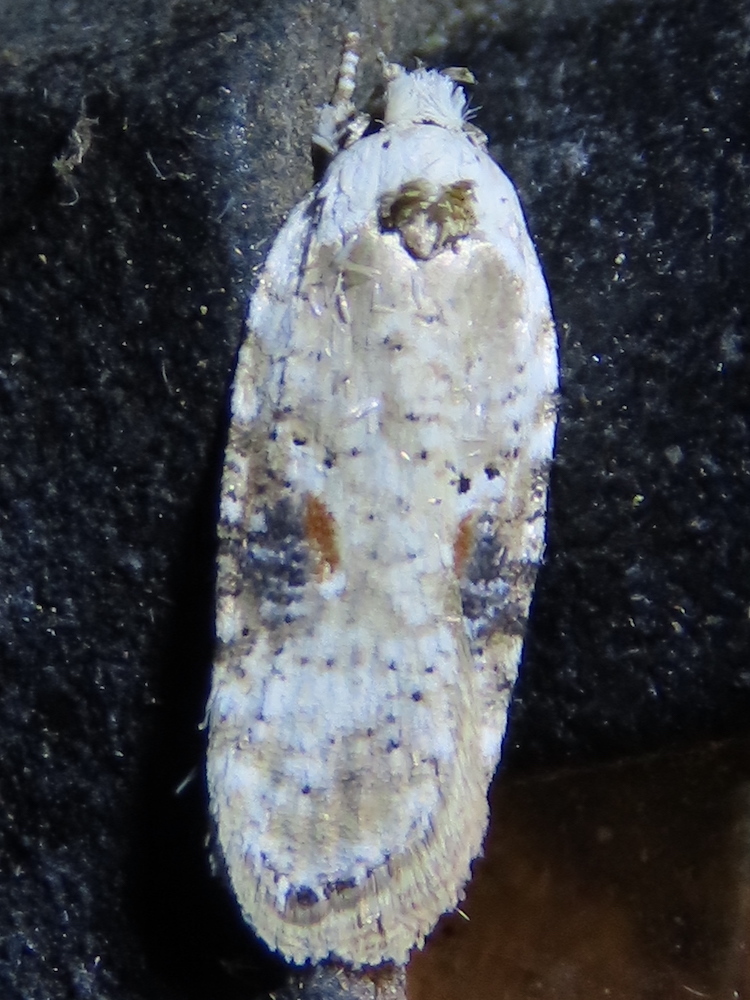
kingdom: Animalia
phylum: Arthropoda
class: Insecta
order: Lepidoptera
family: Depressariidae
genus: Agonopterix
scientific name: Agonopterix alstroemeriana
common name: Moth
